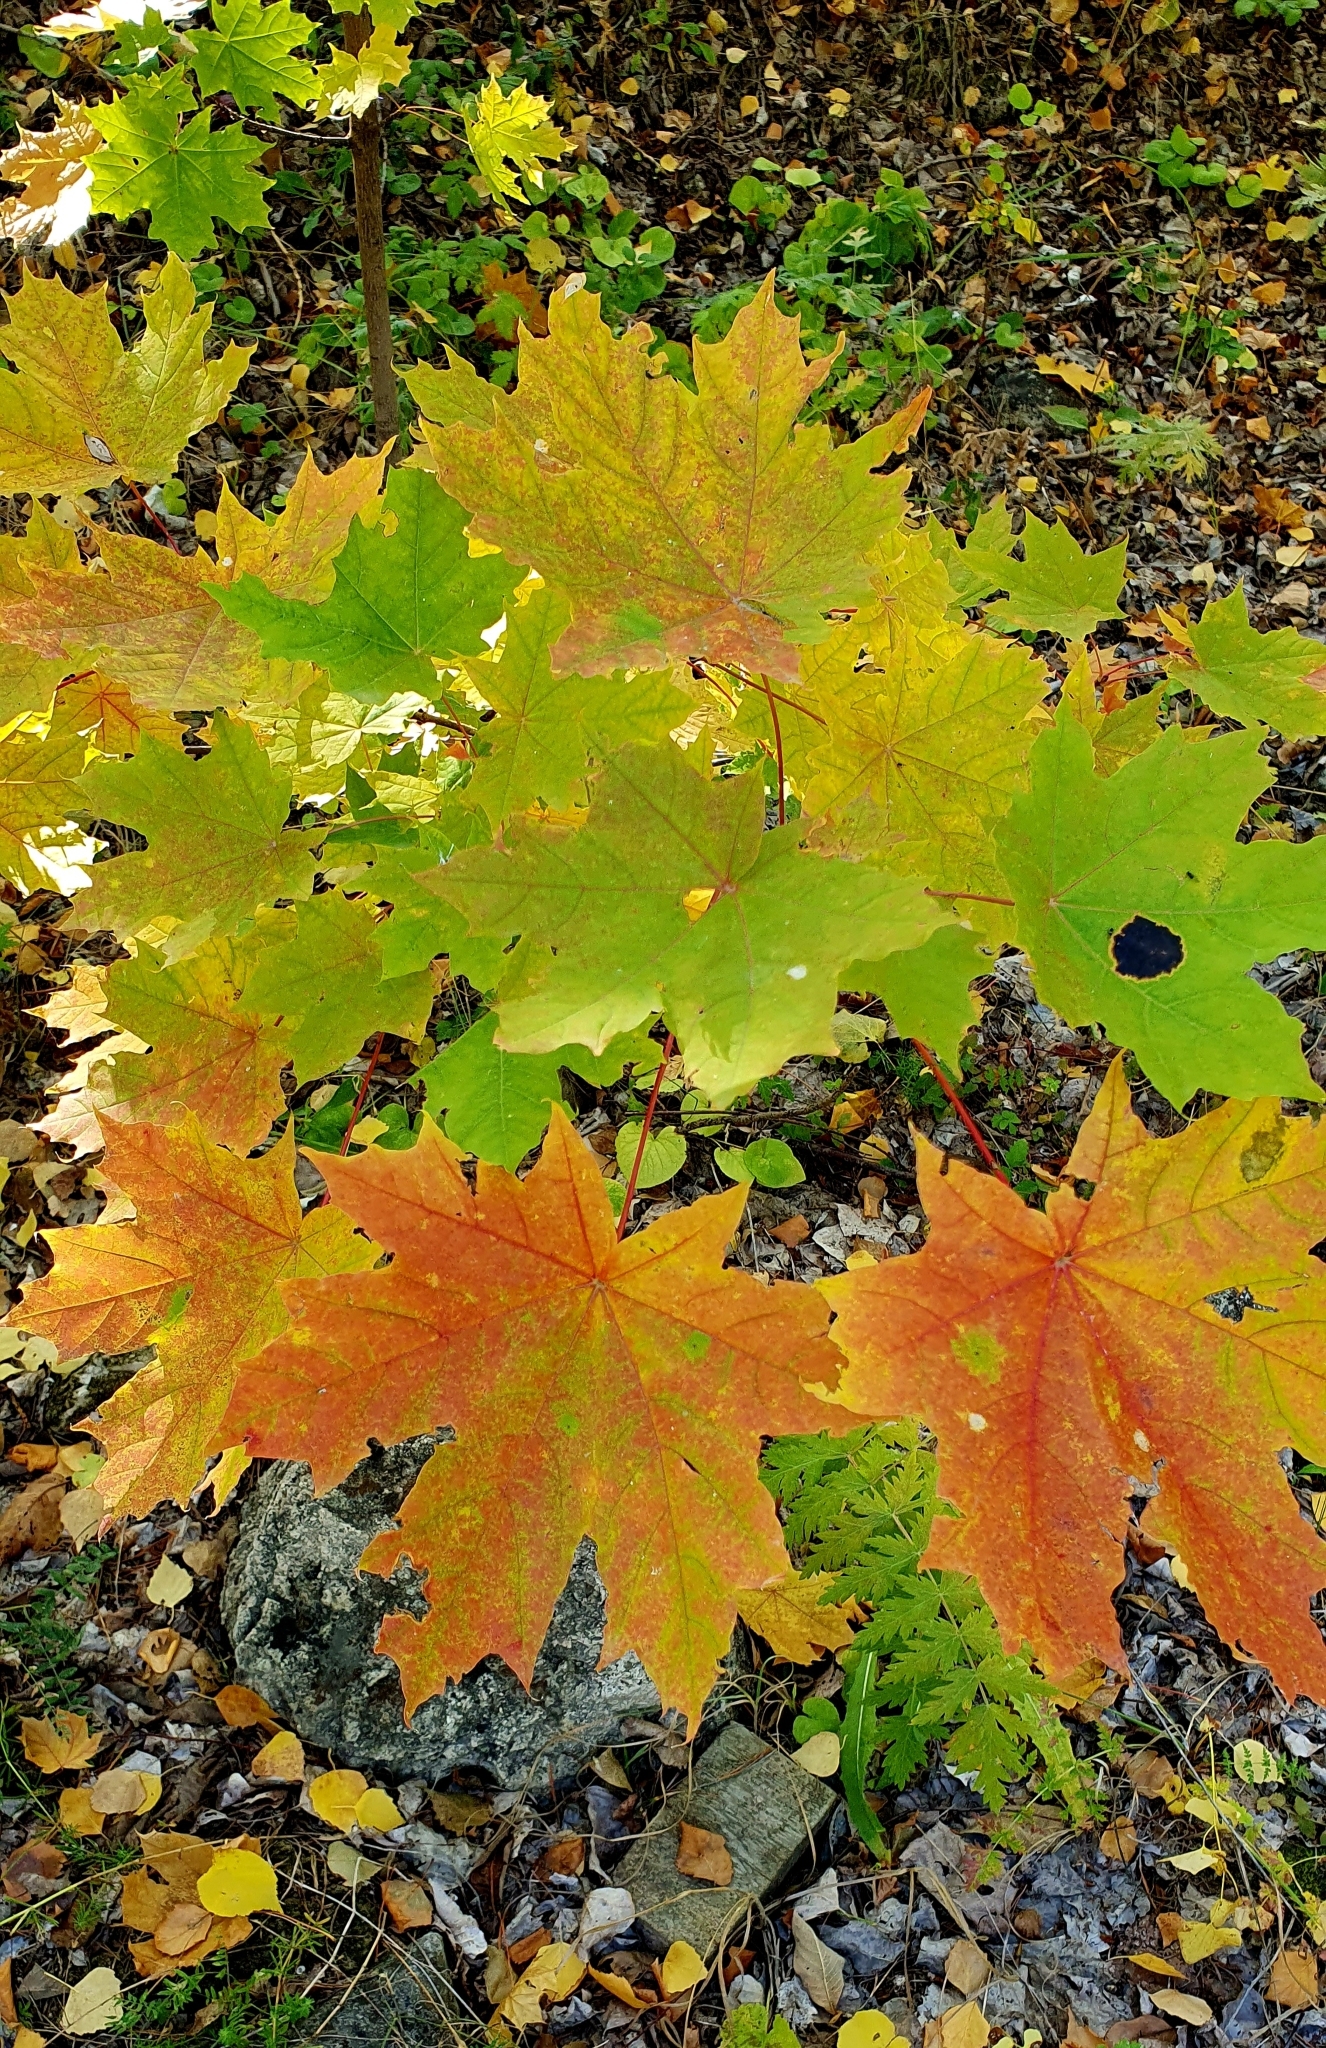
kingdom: Plantae
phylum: Tracheophyta
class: Magnoliopsida
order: Sapindales
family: Sapindaceae
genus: Acer
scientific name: Acer platanoides
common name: Norway maple
